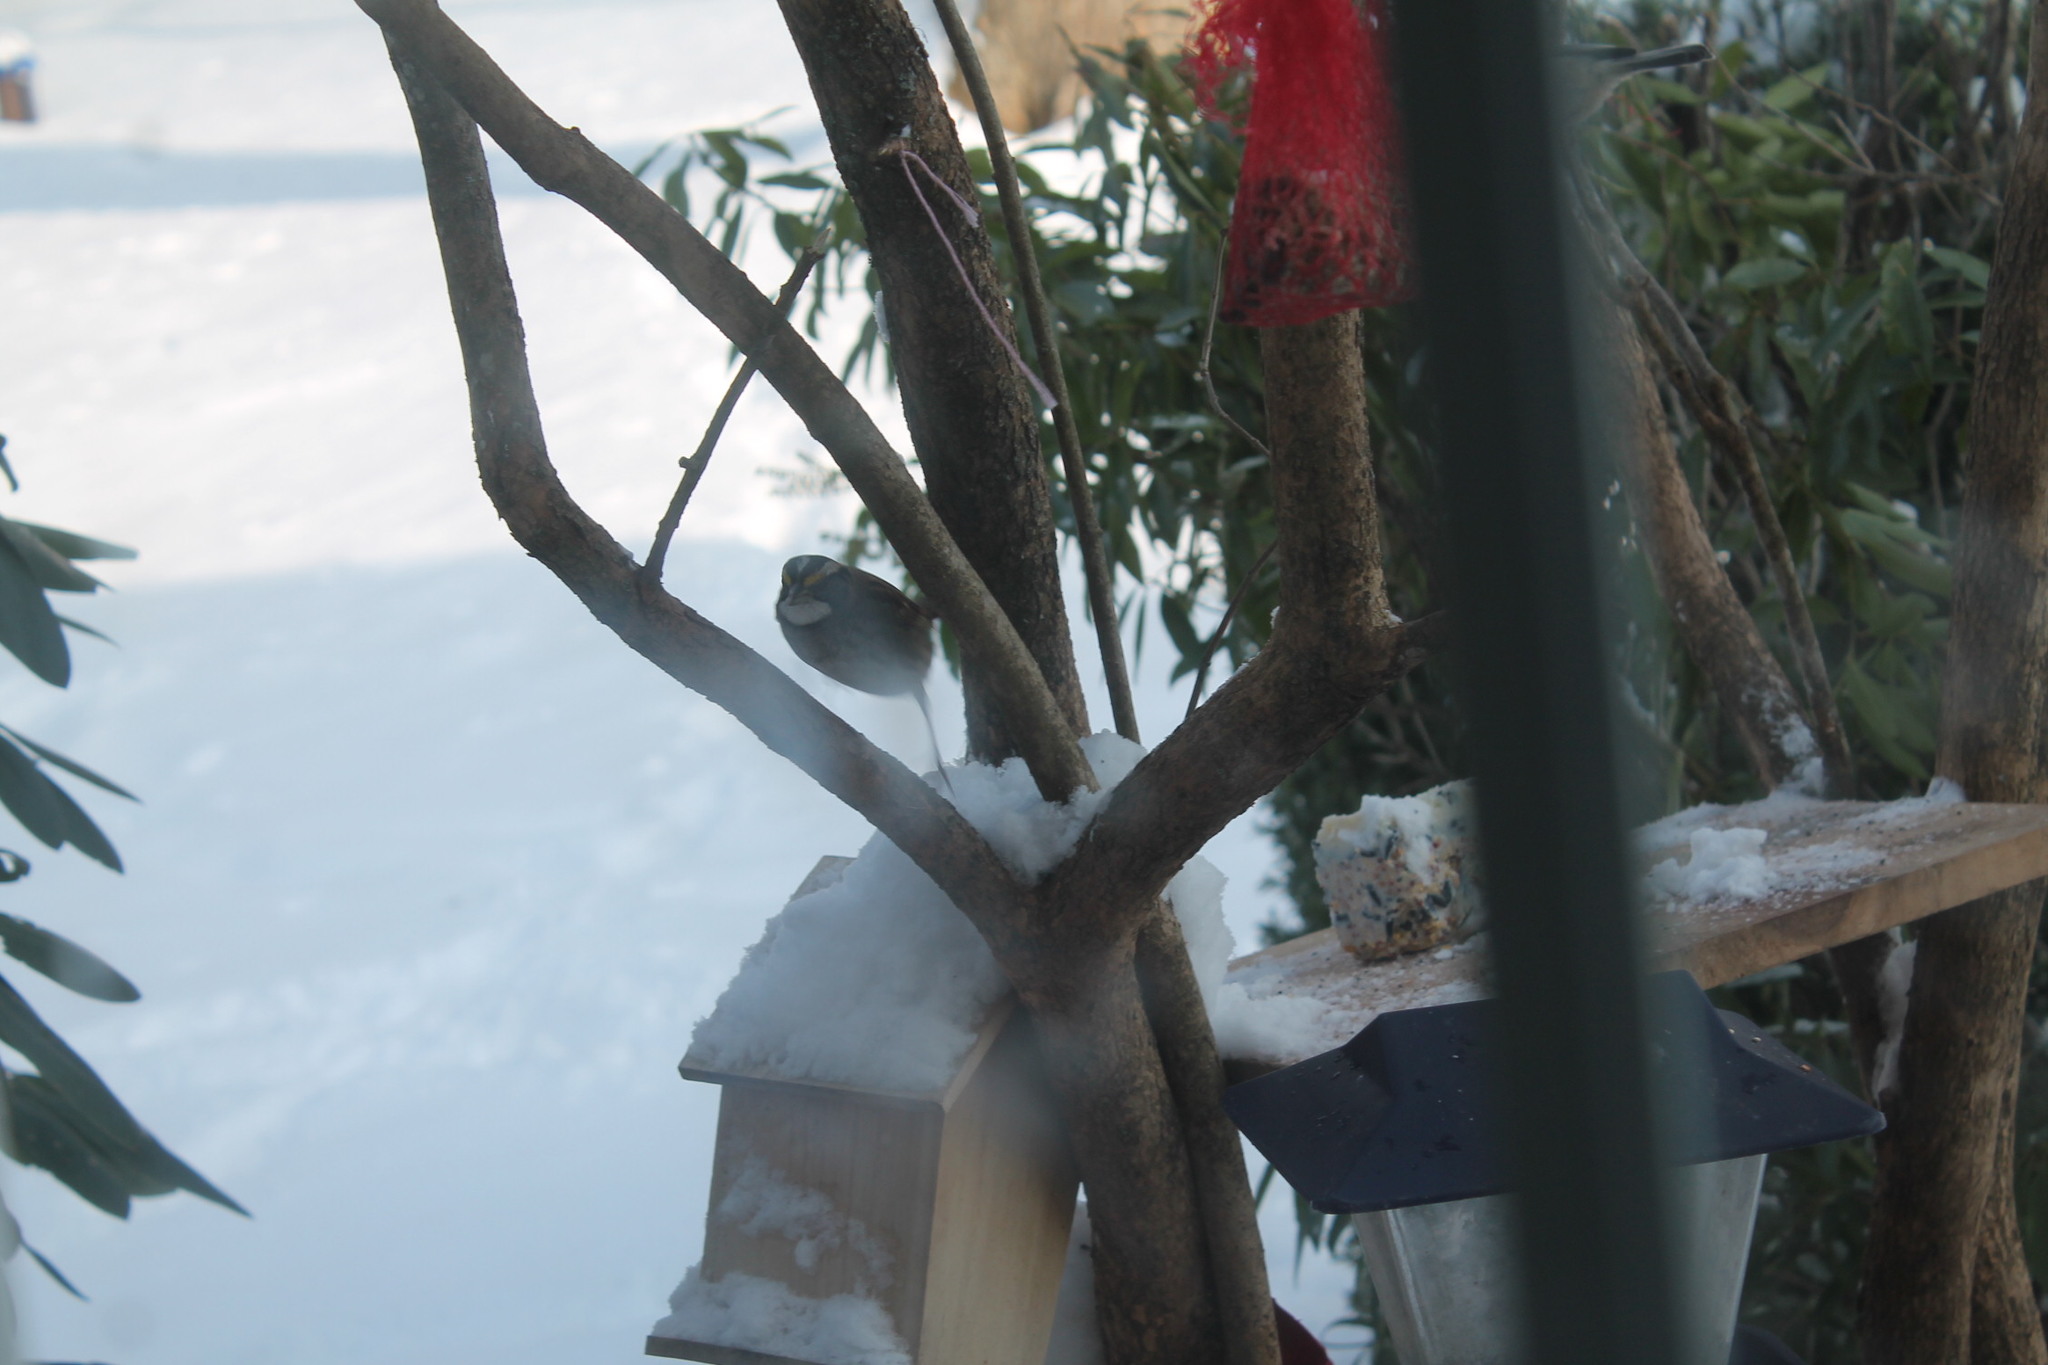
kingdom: Animalia
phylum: Chordata
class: Aves
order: Passeriformes
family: Passerellidae
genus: Zonotrichia
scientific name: Zonotrichia albicollis
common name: White-throated sparrow
